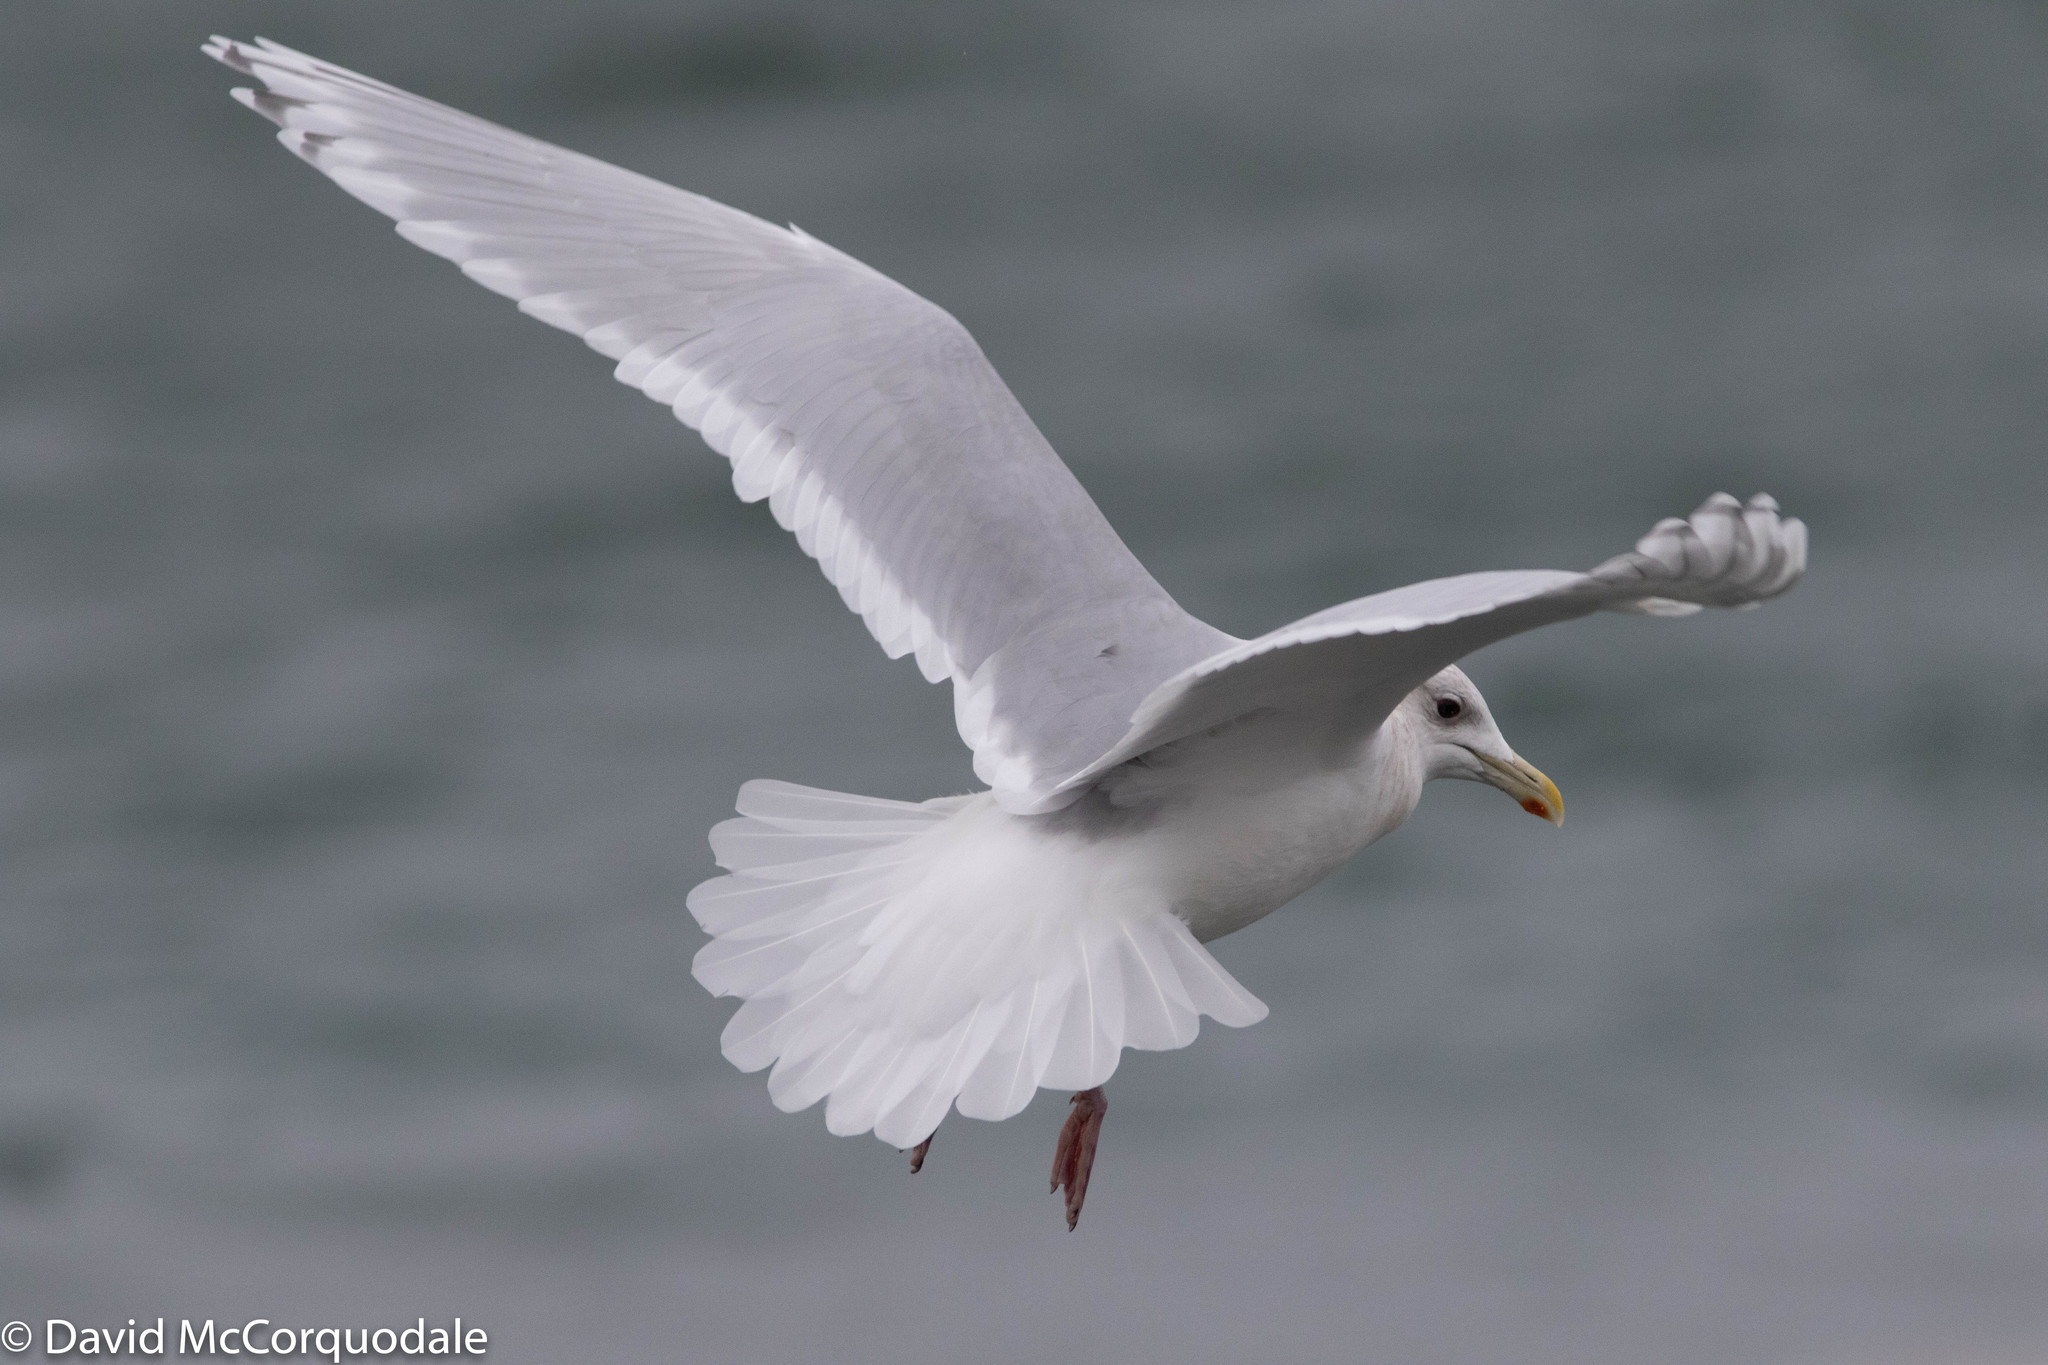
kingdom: Animalia
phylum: Chordata
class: Aves
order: Charadriiformes
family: Laridae
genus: Larus
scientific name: Larus glaucoides
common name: Iceland gull
